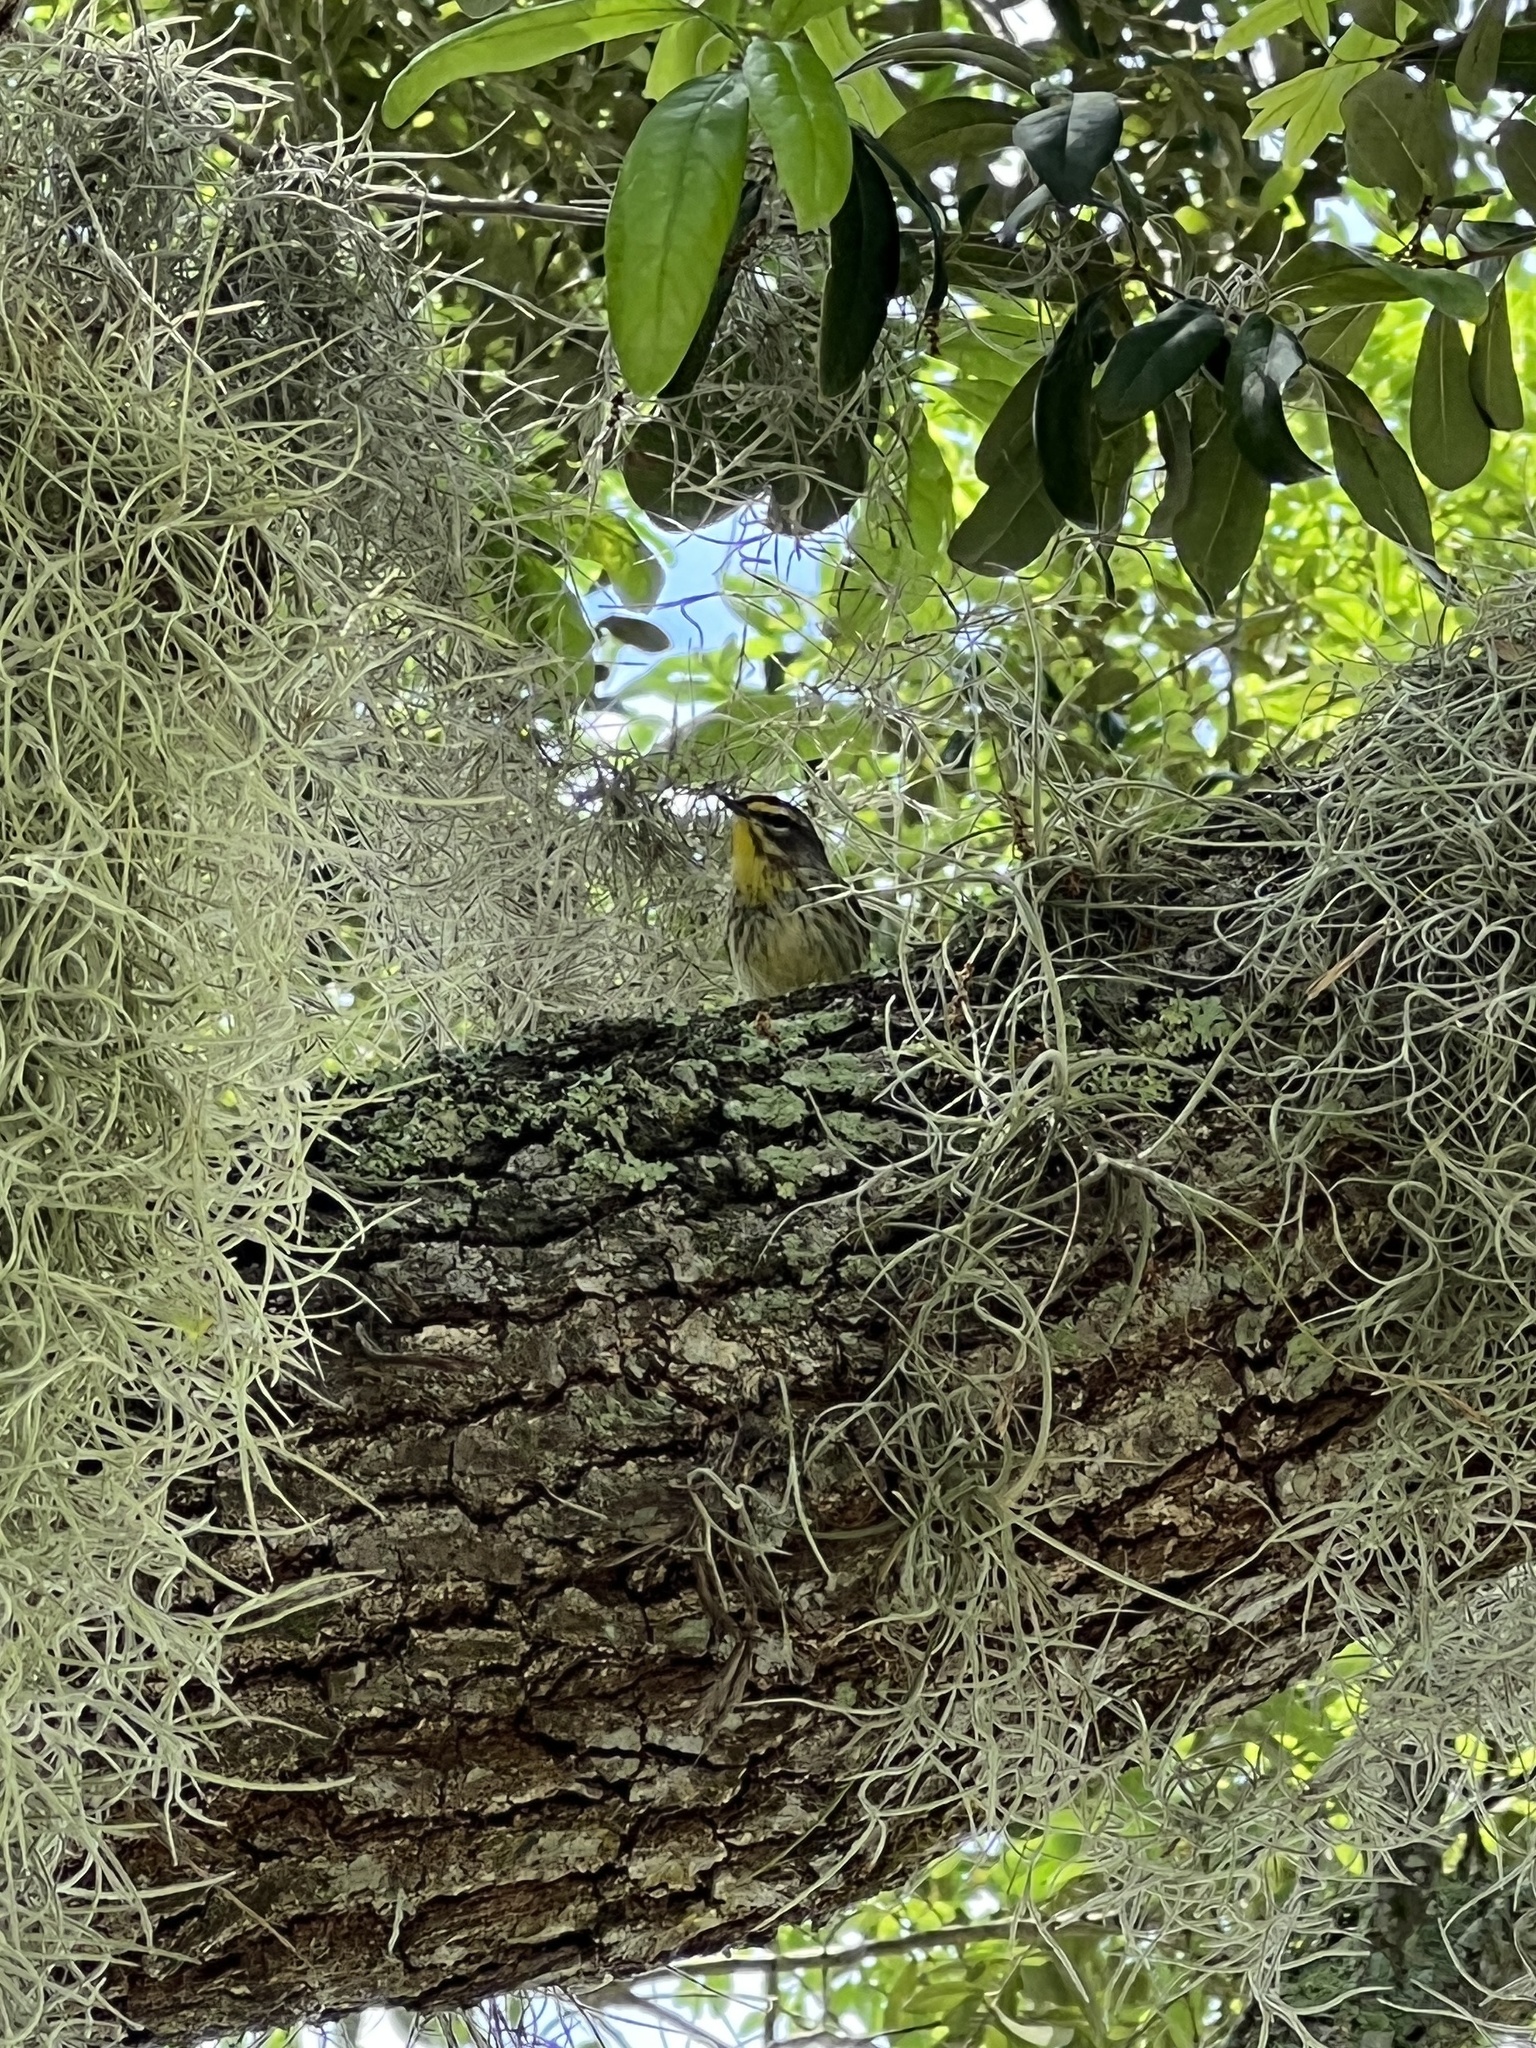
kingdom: Animalia
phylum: Chordata
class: Aves
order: Passeriformes
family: Parulidae
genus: Setophaga
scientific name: Setophaga palmarum
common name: Palm warbler
